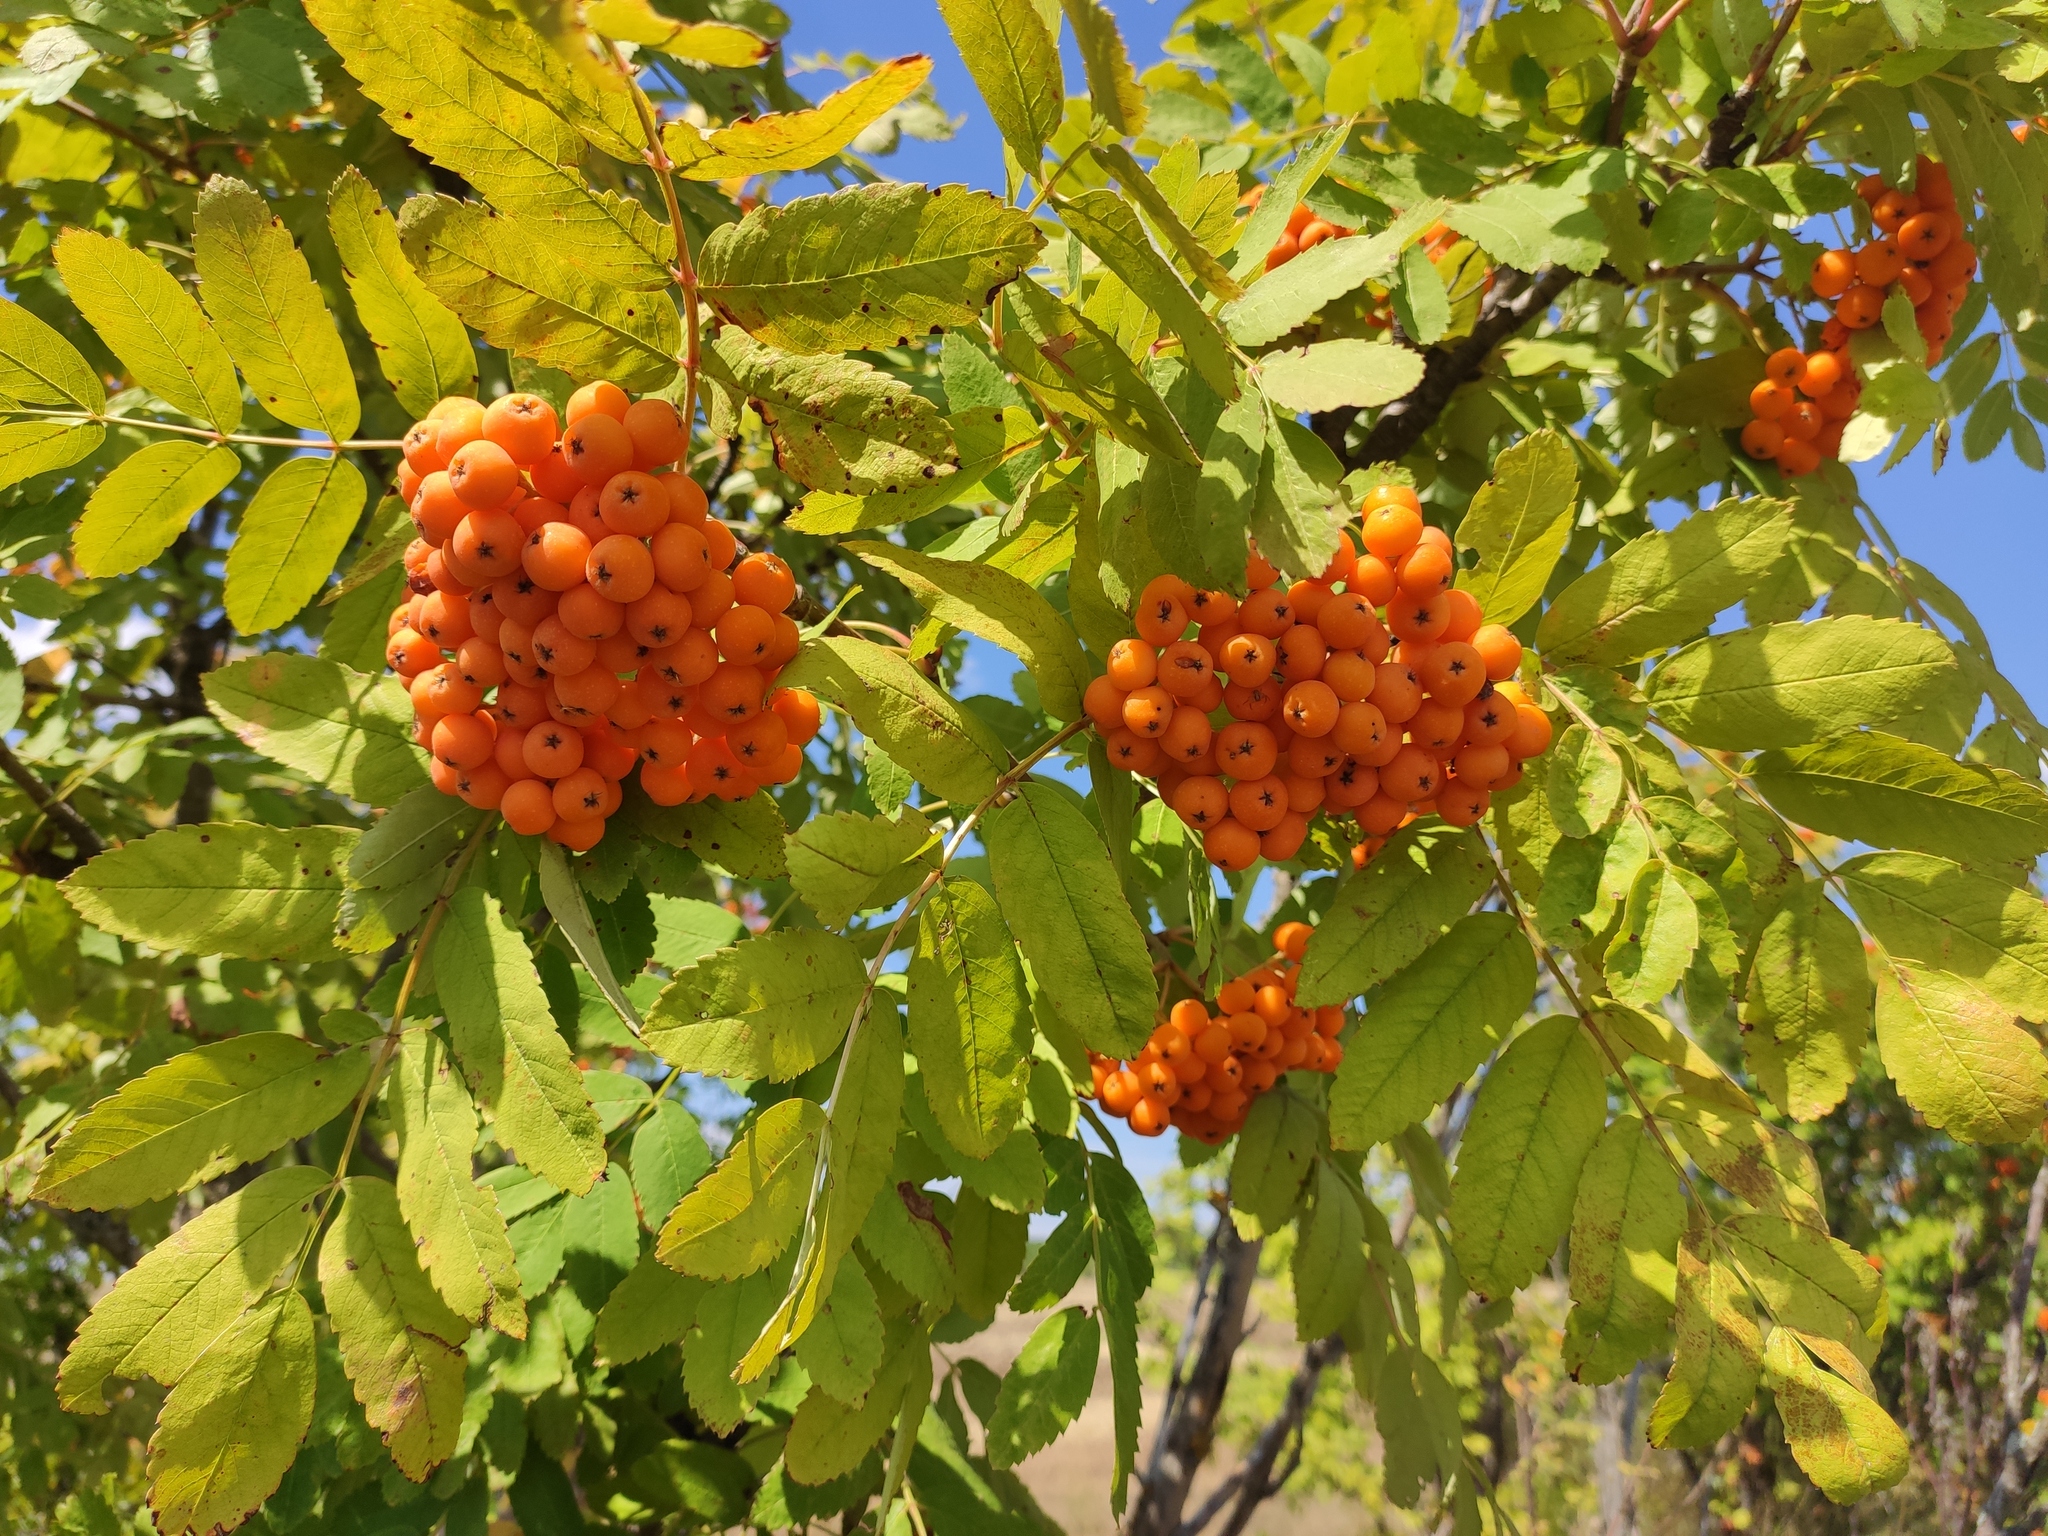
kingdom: Plantae
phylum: Tracheophyta
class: Magnoliopsida
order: Rosales
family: Rosaceae
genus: Sorbus
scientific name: Sorbus aucuparia
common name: Rowan
